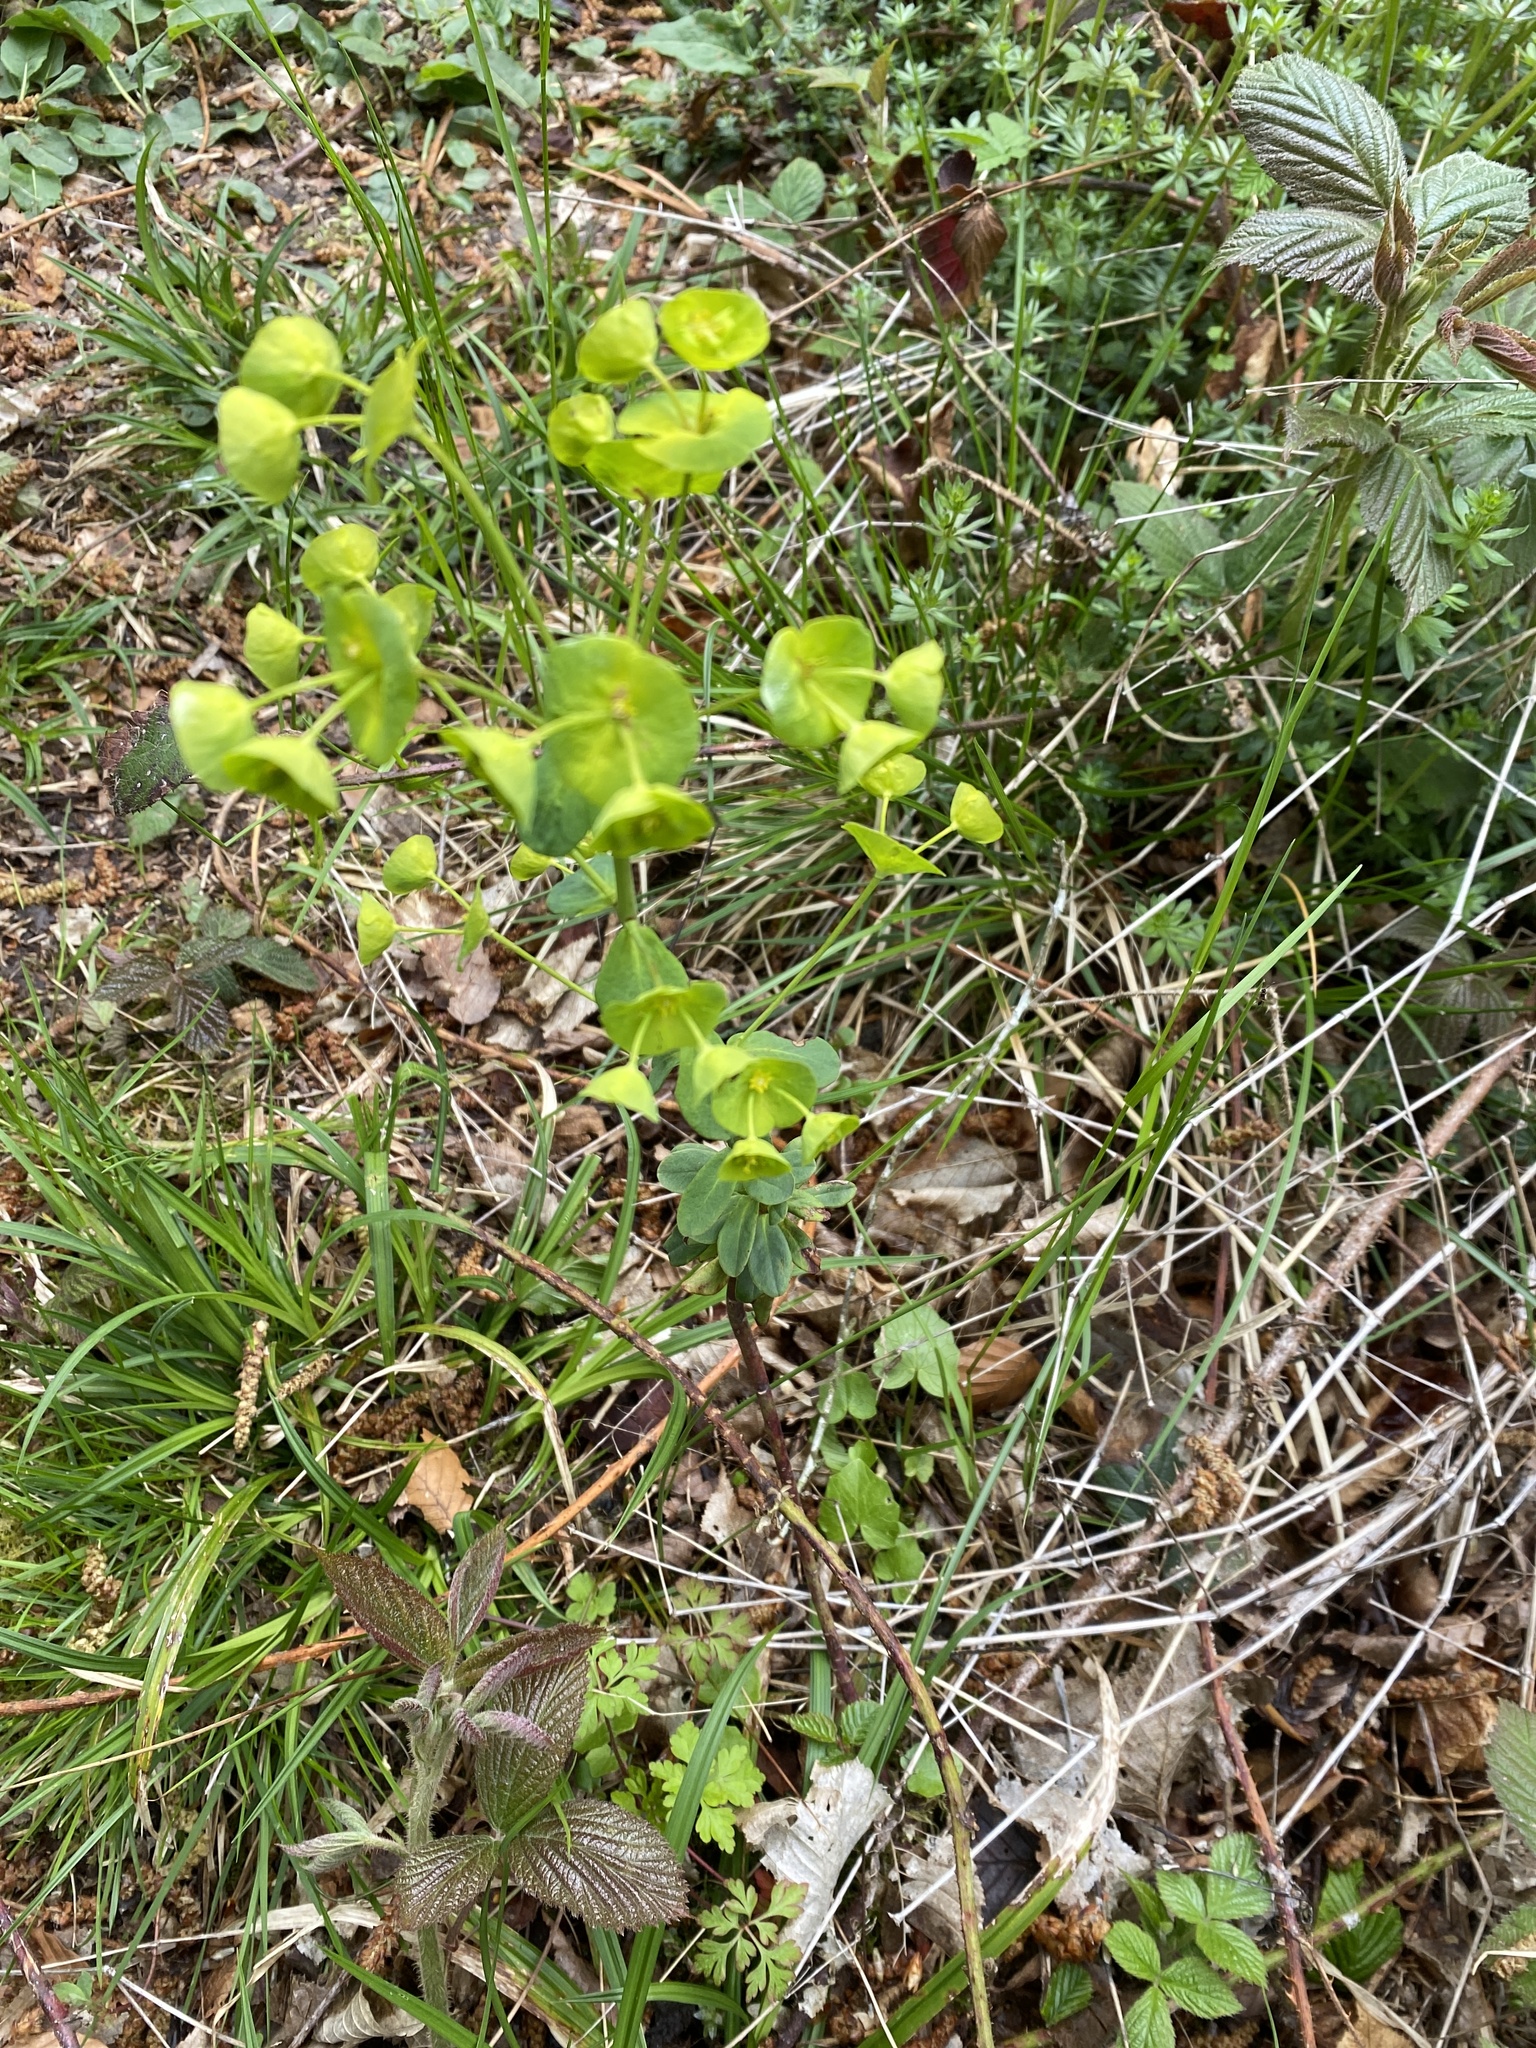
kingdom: Plantae
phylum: Tracheophyta
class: Magnoliopsida
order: Malpighiales
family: Euphorbiaceae
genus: Euphorbia
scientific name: Euphorbia amygdaloides
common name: Wood spurge
